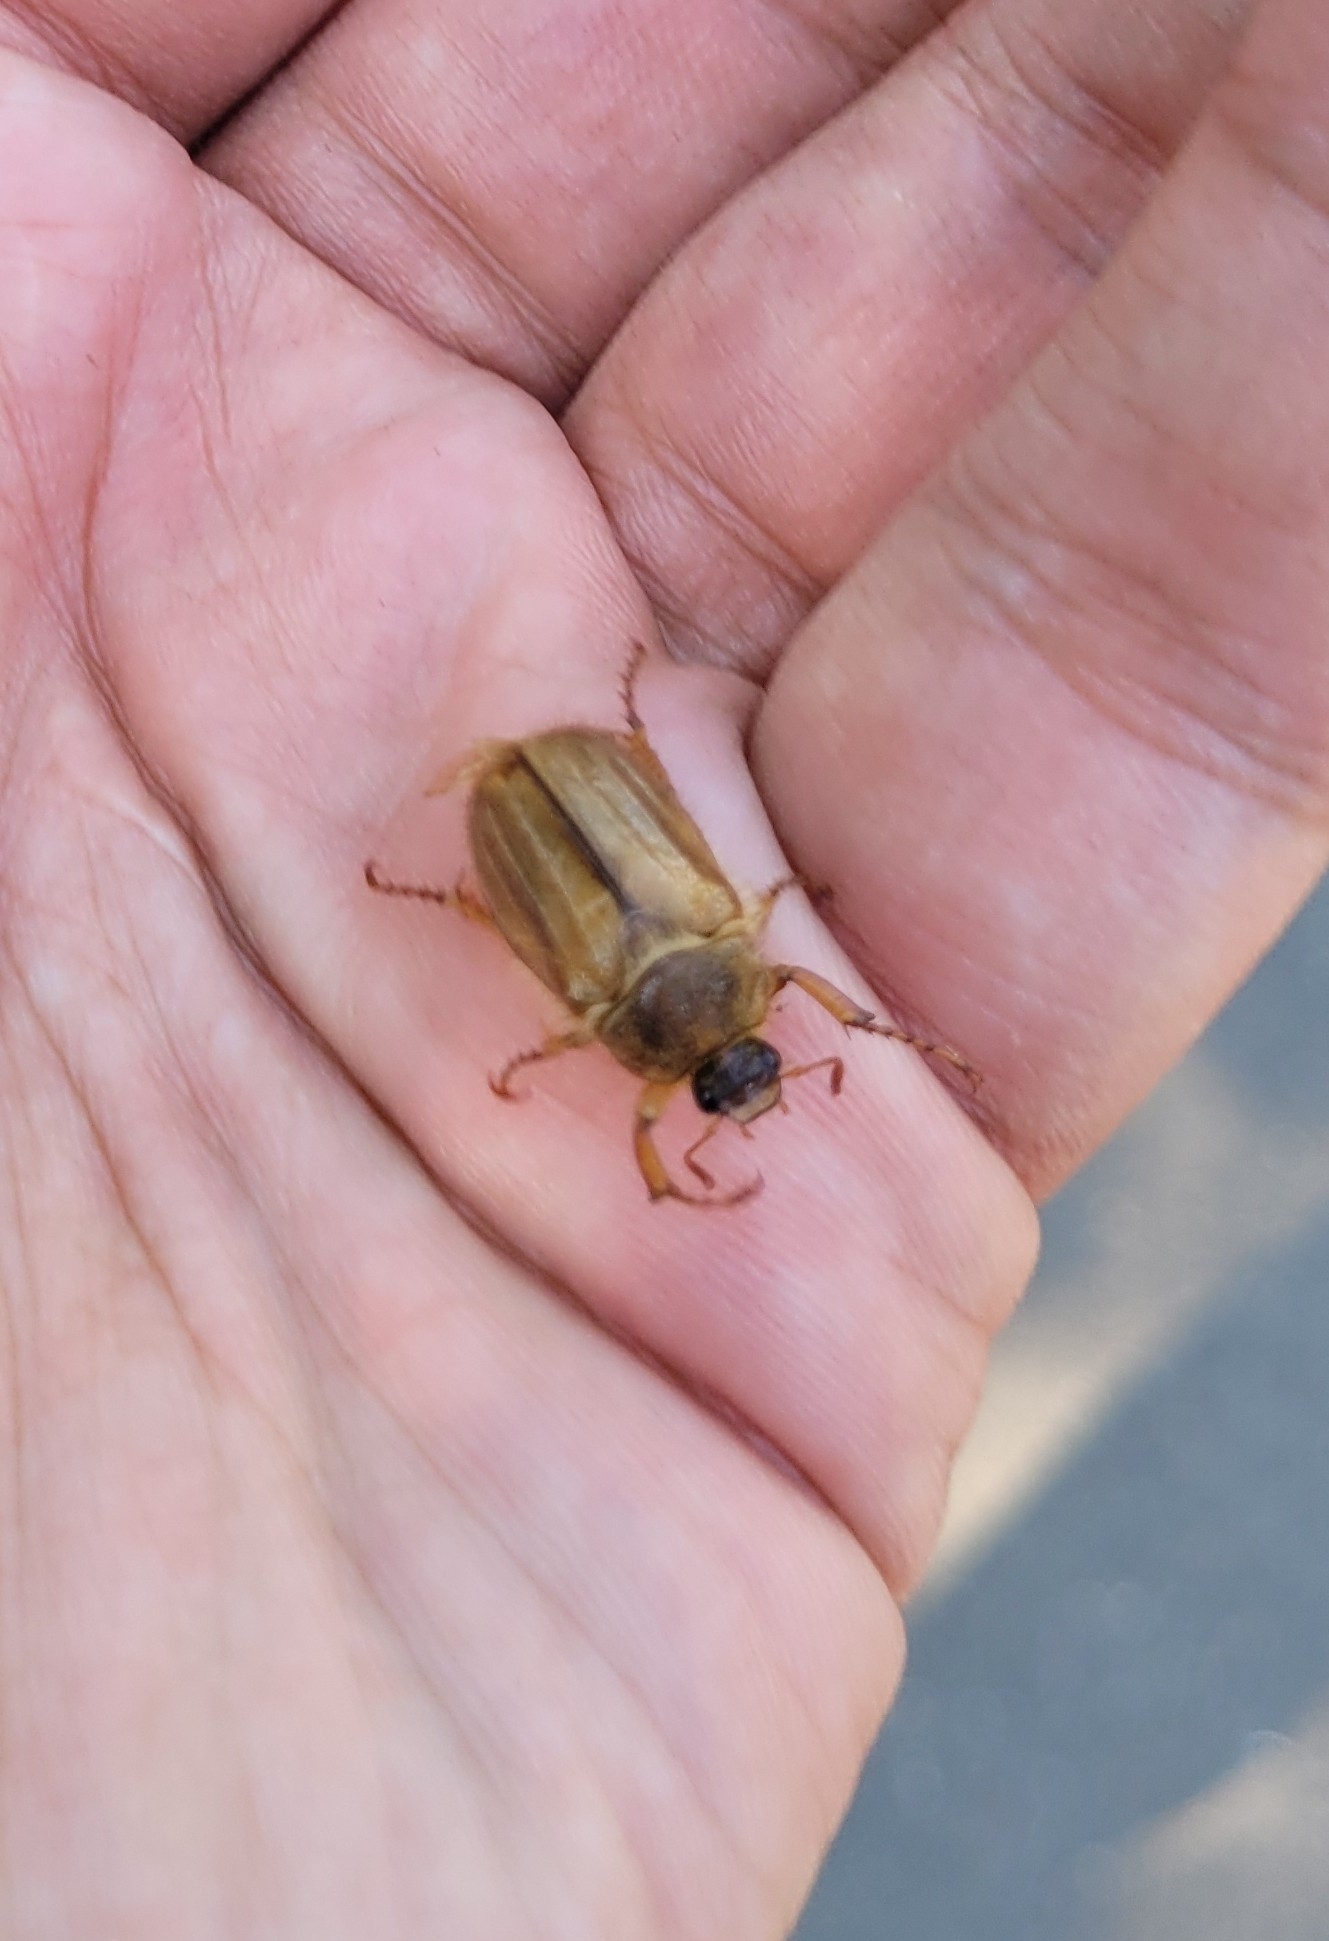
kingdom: Animalia
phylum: Arthropoda
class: Insecta
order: Coleoptera
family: Scarabaeidae
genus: Amphimallon
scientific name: Amphimallon solstitiale
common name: Summer chafer
